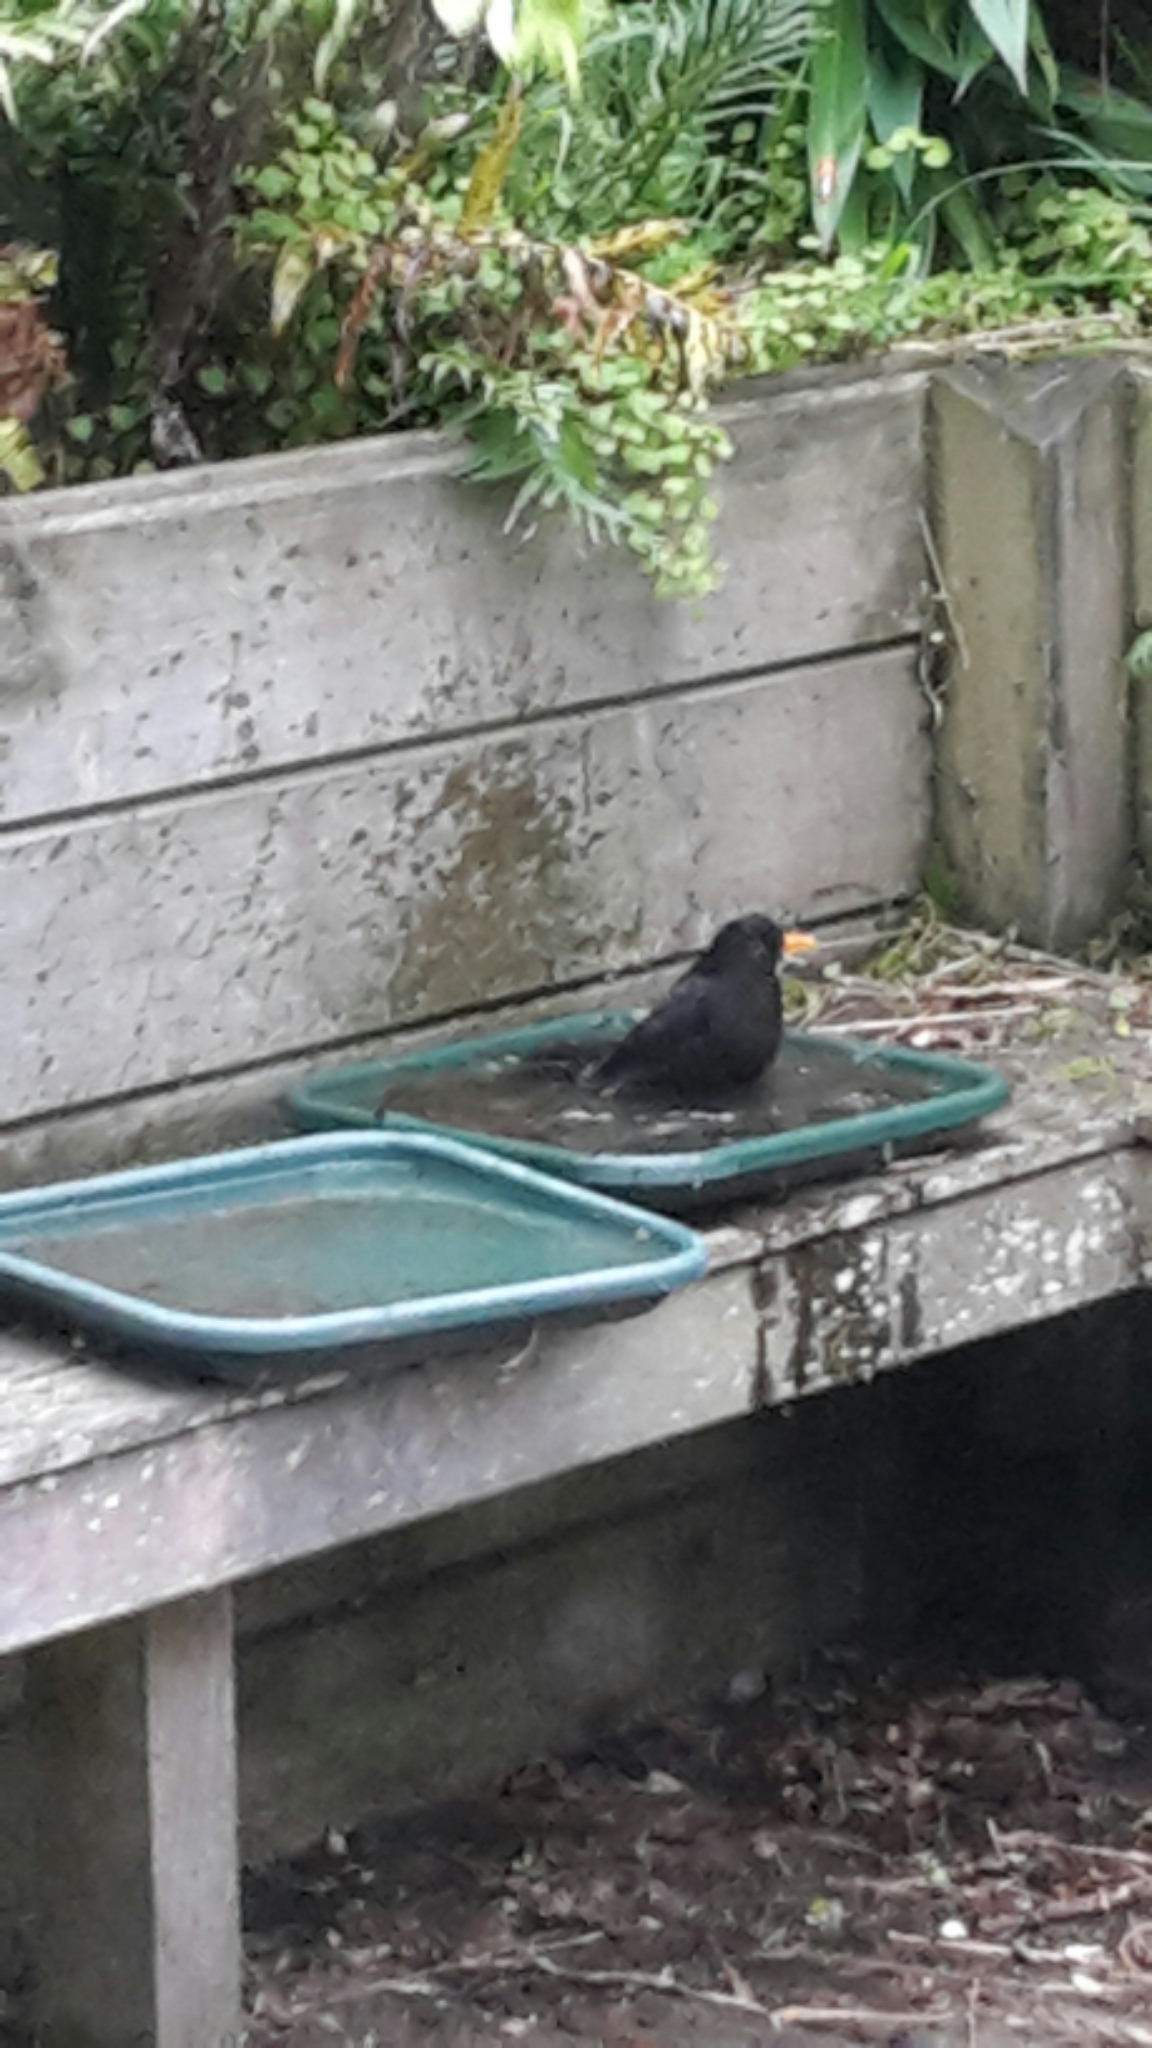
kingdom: Animalia
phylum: Chordata
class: Aves
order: Passeriformes
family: Turdidae
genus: Turdus
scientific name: Turdus merula
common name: Common blackbird
